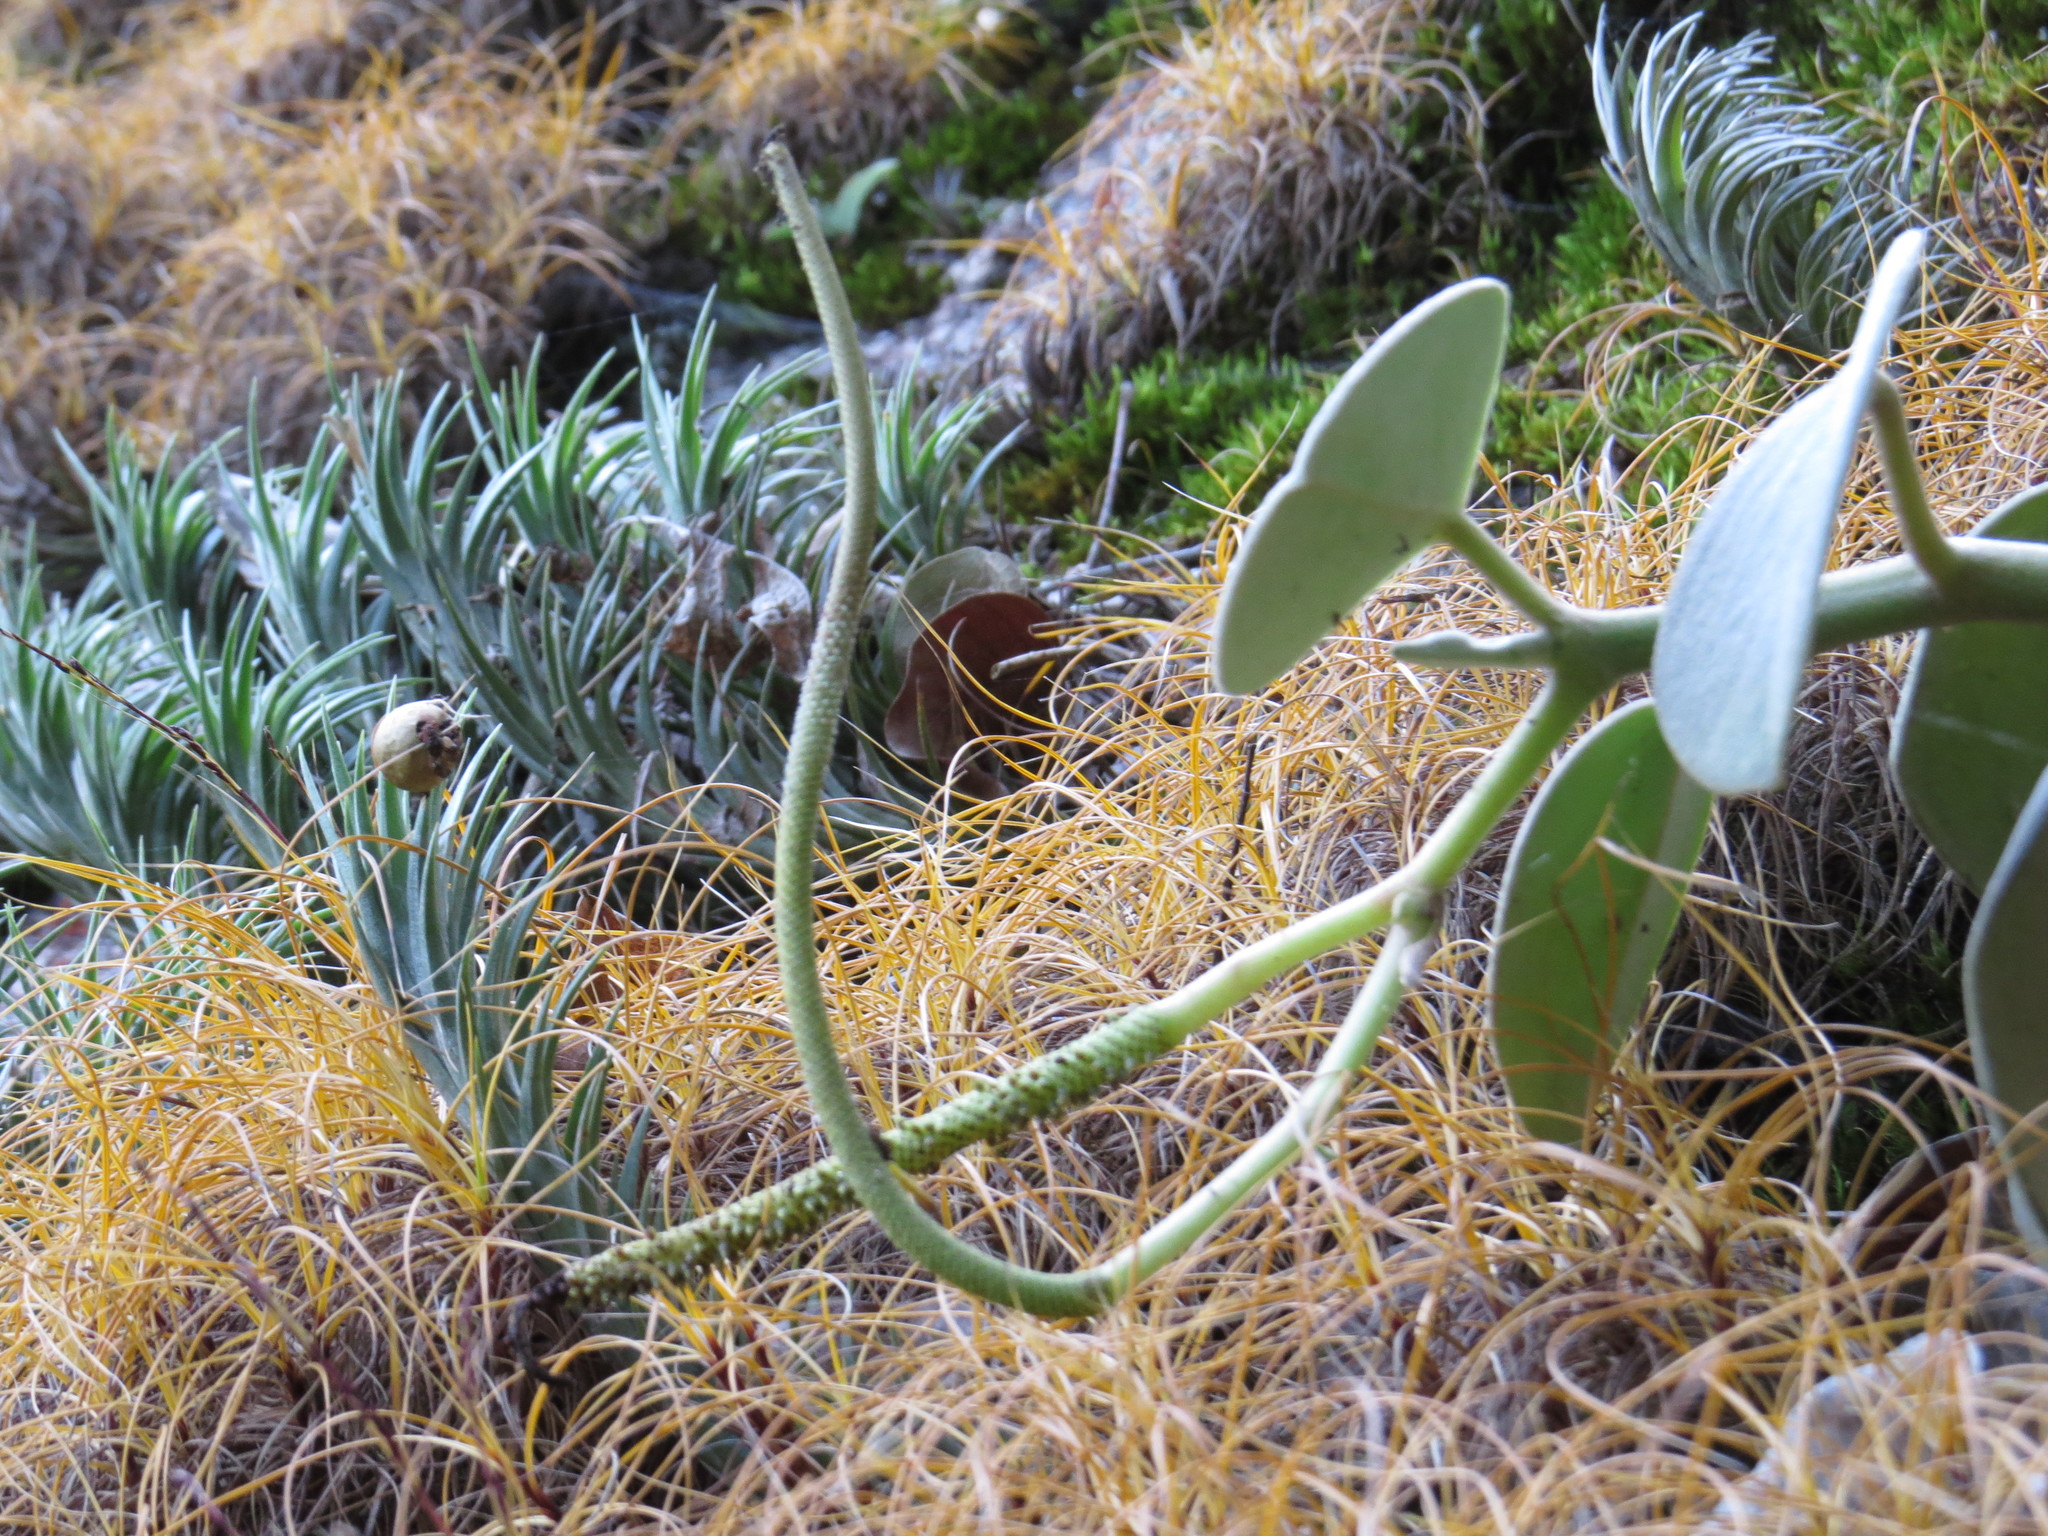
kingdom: Plantae
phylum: Tracheophyta
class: Magnoliopsida
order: Piperales
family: Piperaceae
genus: Peperomia
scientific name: Peperomia incana
